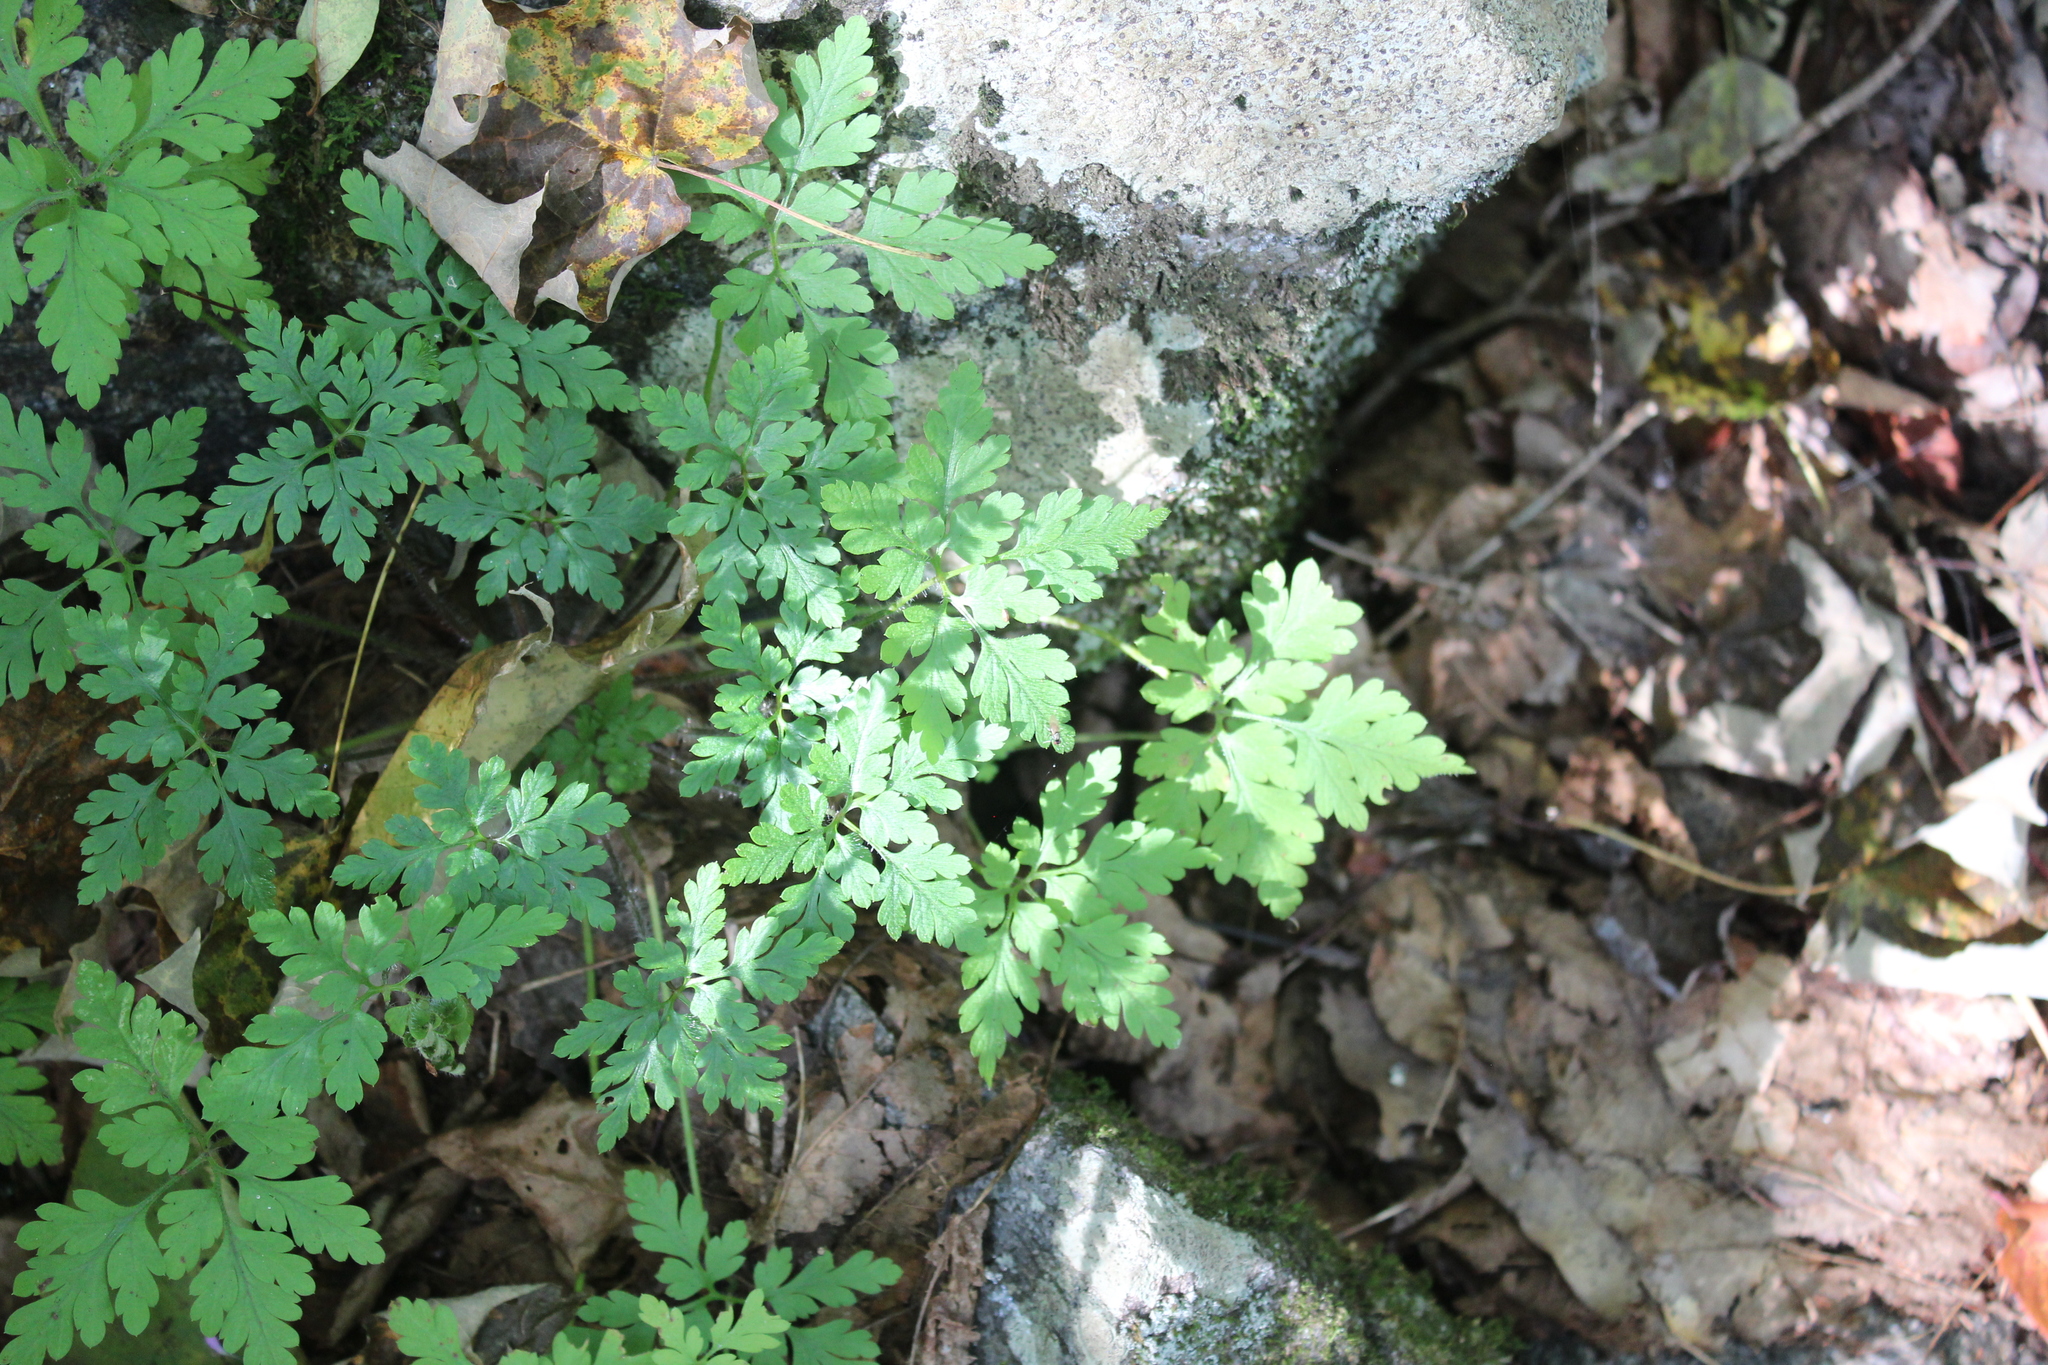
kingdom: Plantae
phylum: Tracheophyta
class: Magnoliopsida
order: Geraniales
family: Geraniaceae
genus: Geranium
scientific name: Geranium robertianum
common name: Herb-robert
